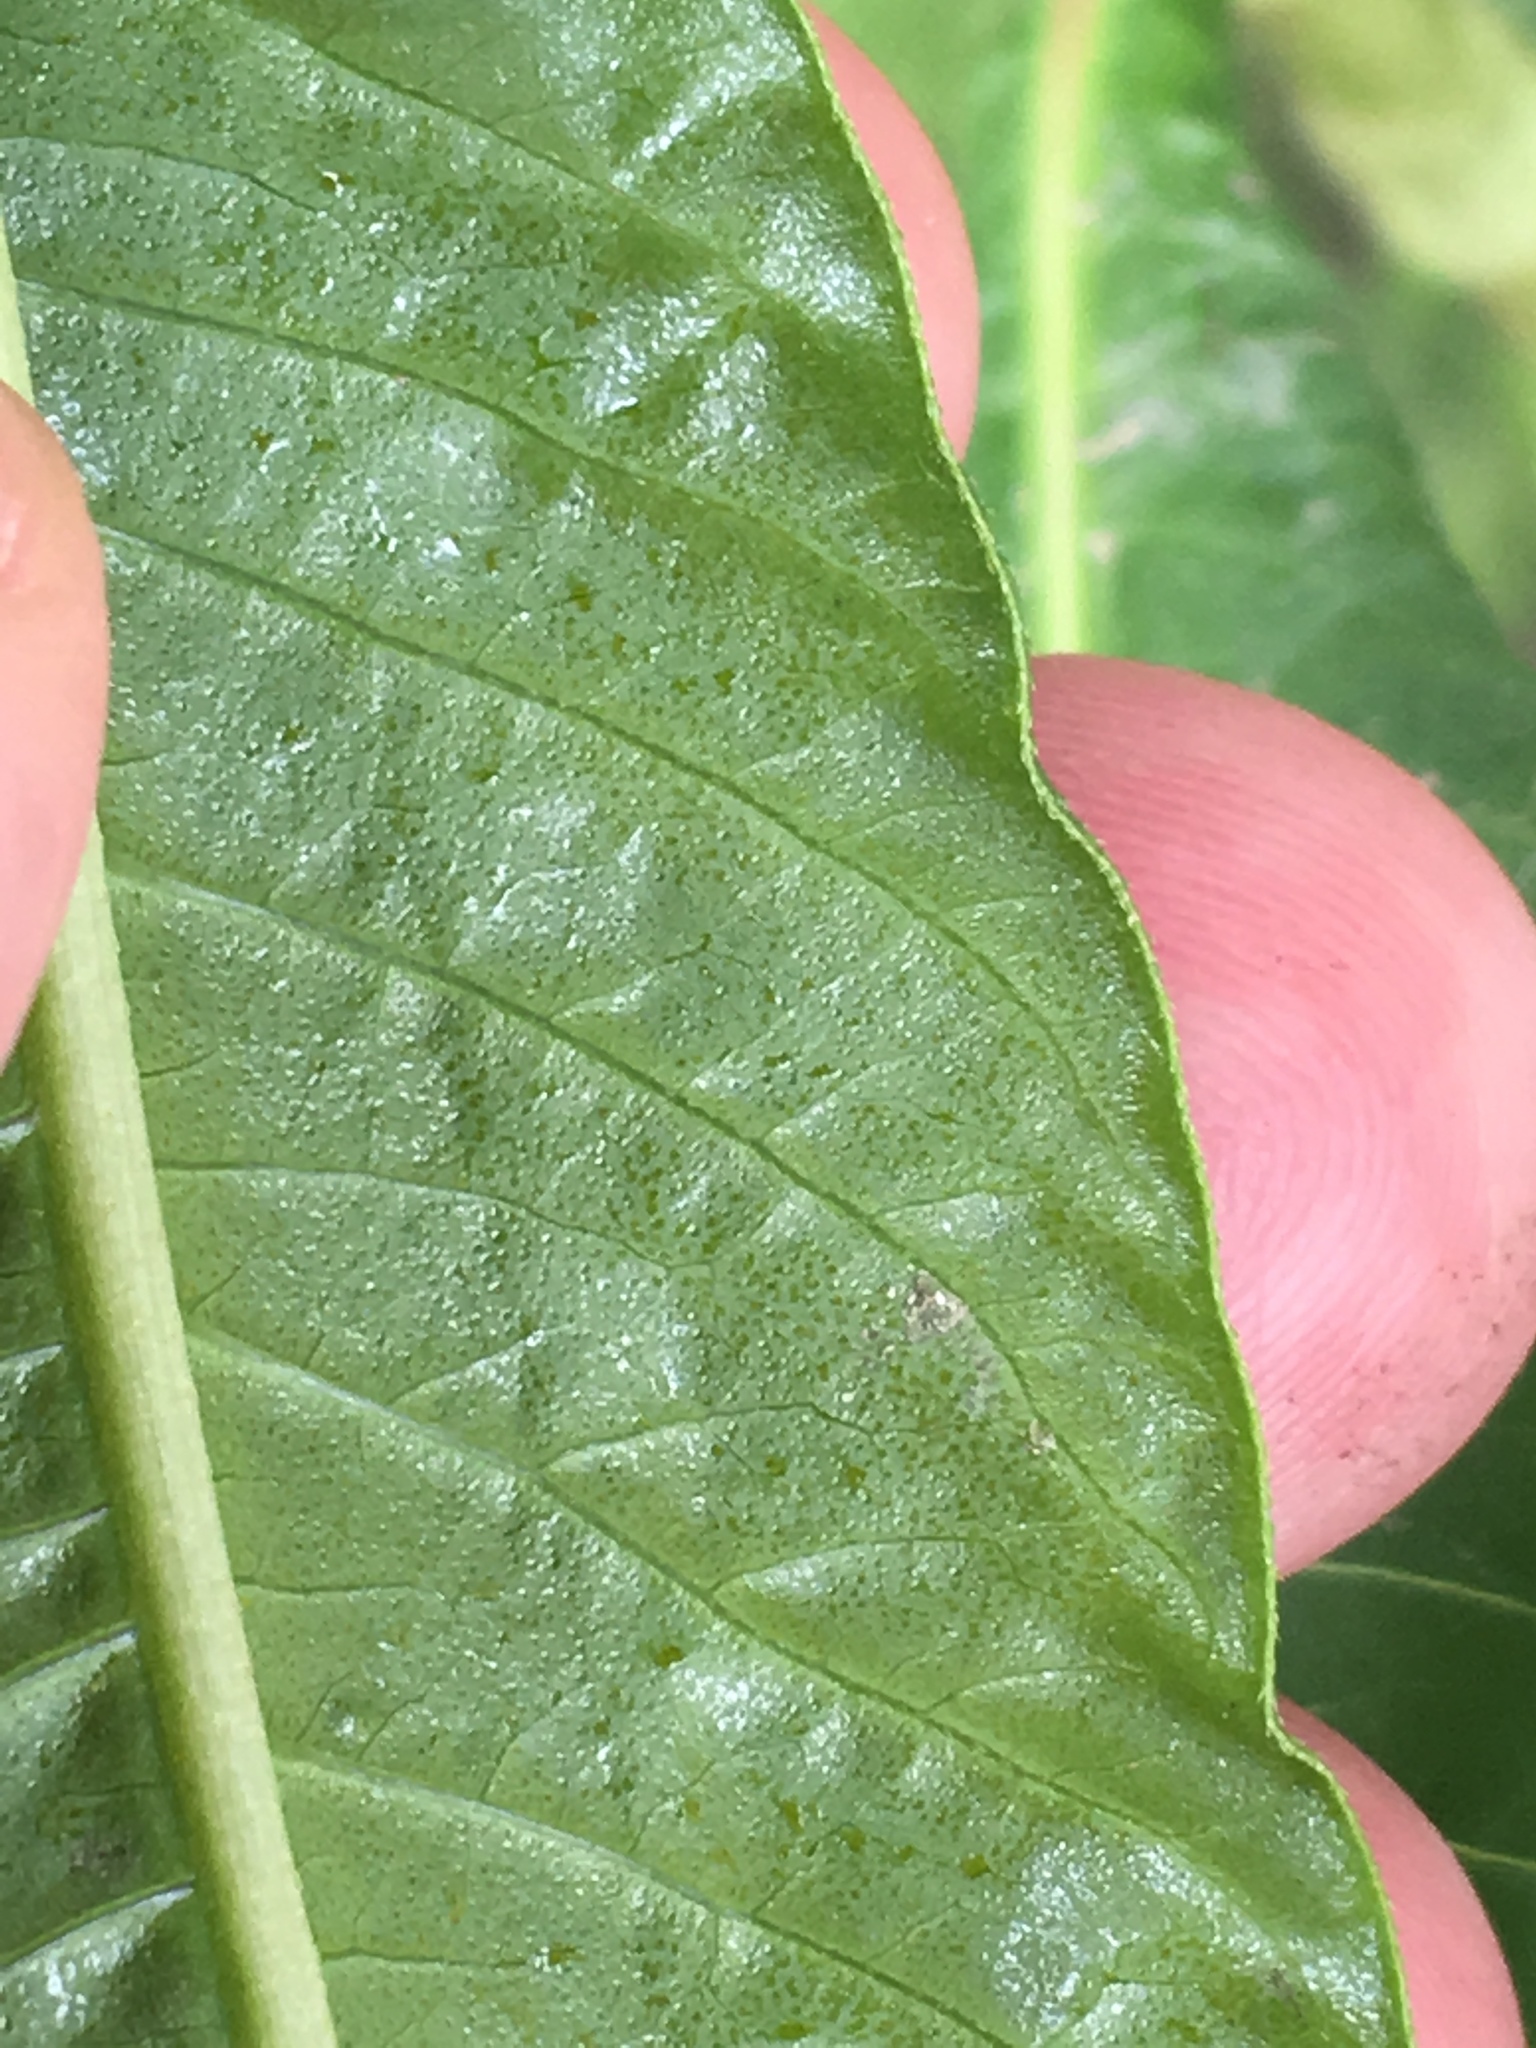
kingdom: Plantae
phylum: Tracheophyta
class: Magnoliopsida
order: Caryophyllales
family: Polygonaceae
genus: Persicaria
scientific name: Persicaria lapathifolia
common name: Curlytop knotweed
